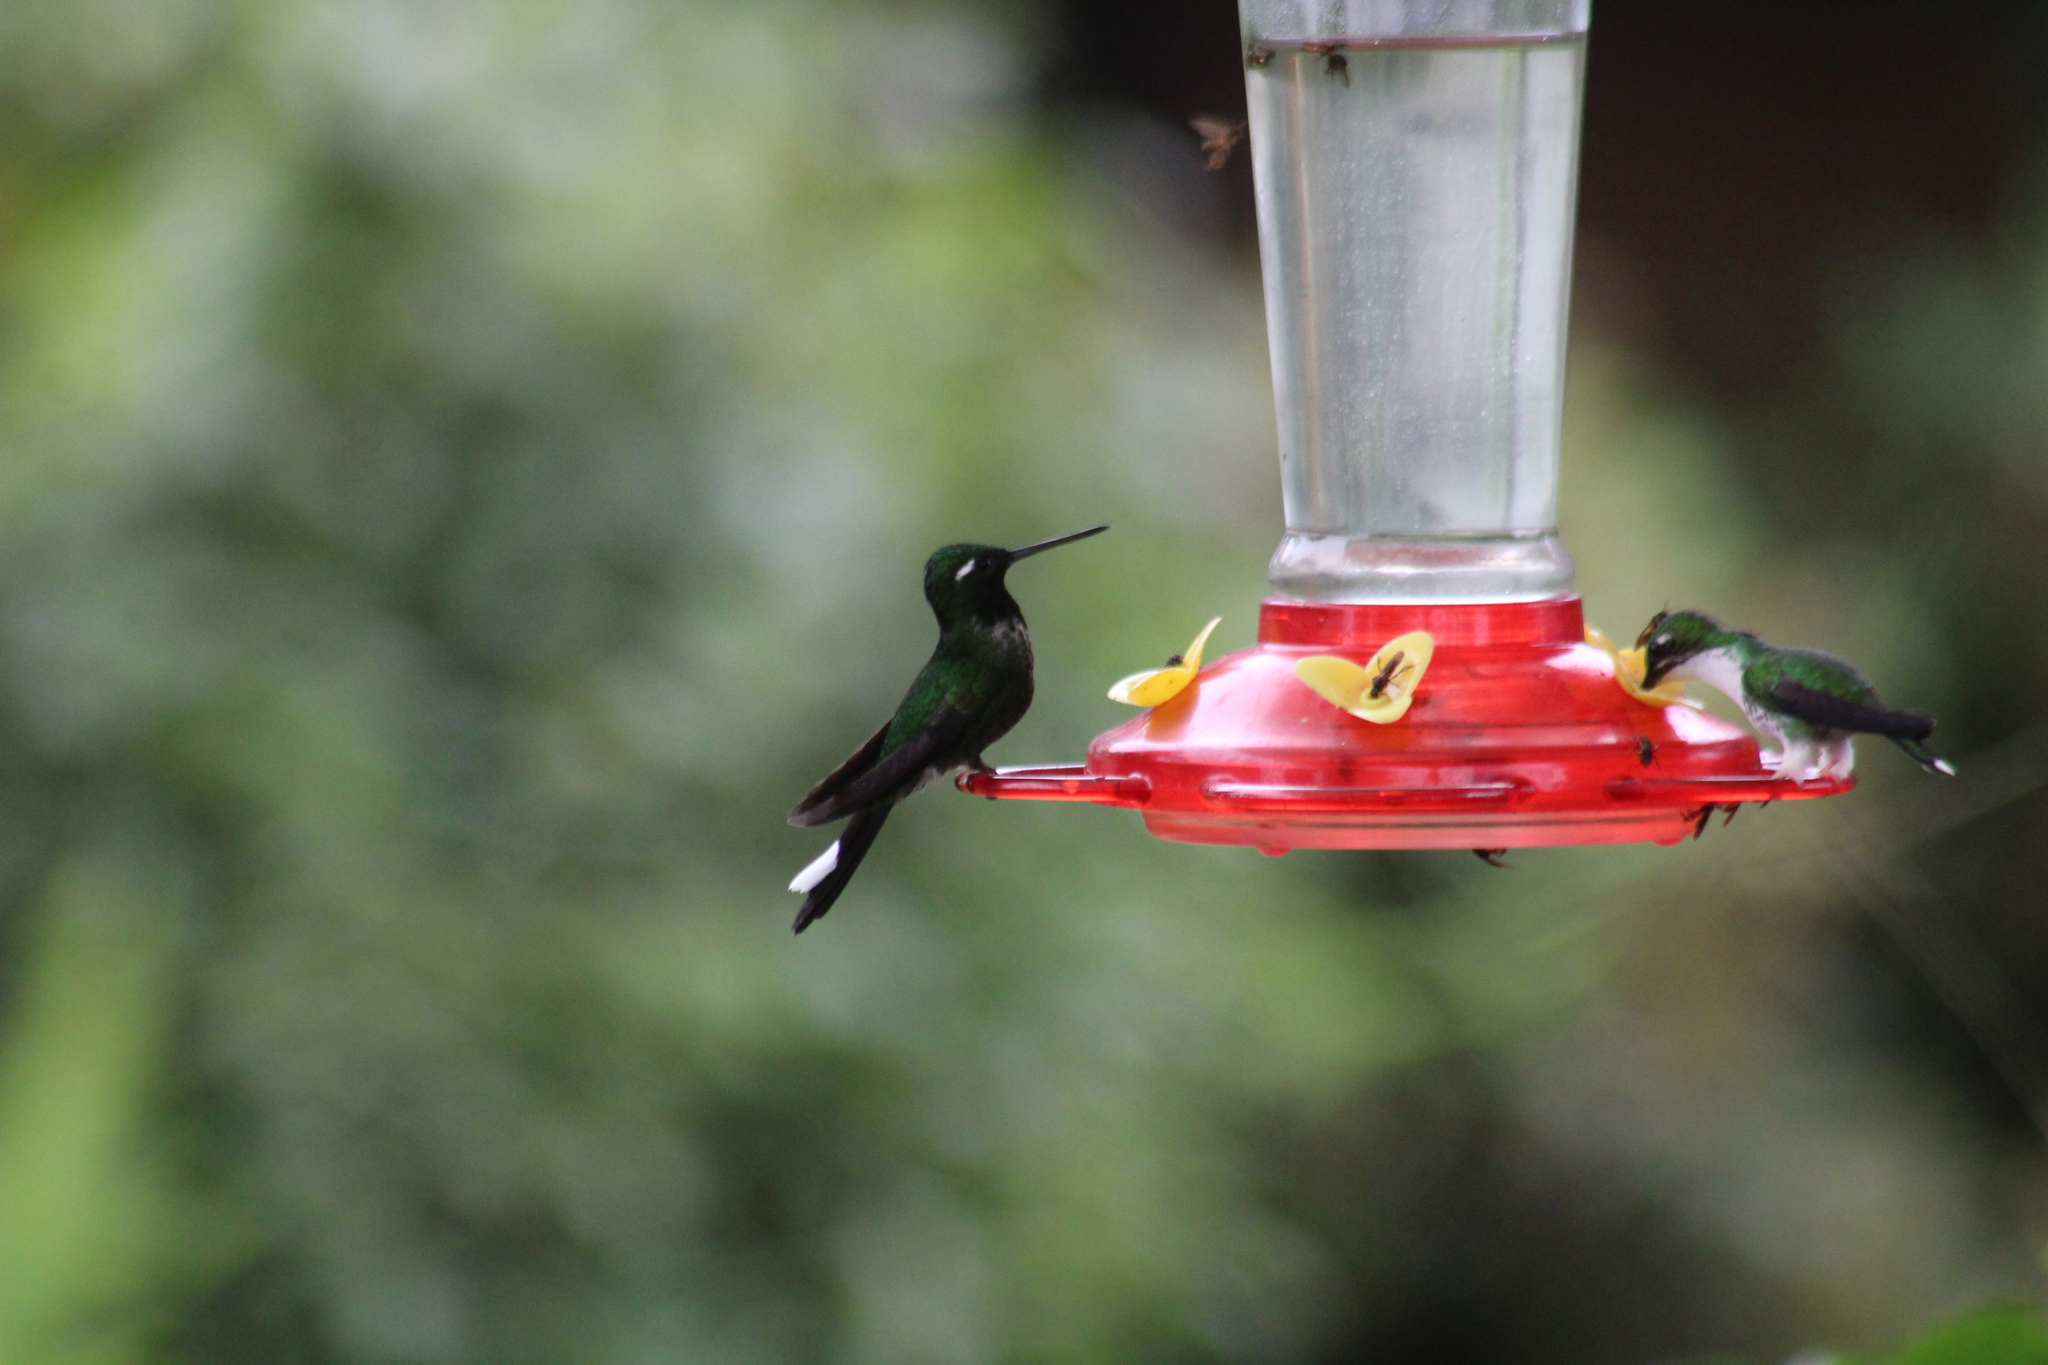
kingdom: Animalia
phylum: Chordata
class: Aves
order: Apodiformes
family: Trochilidae
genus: Urosticte
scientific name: Urosticte benjamini
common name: Purple-bibbed whitetip
